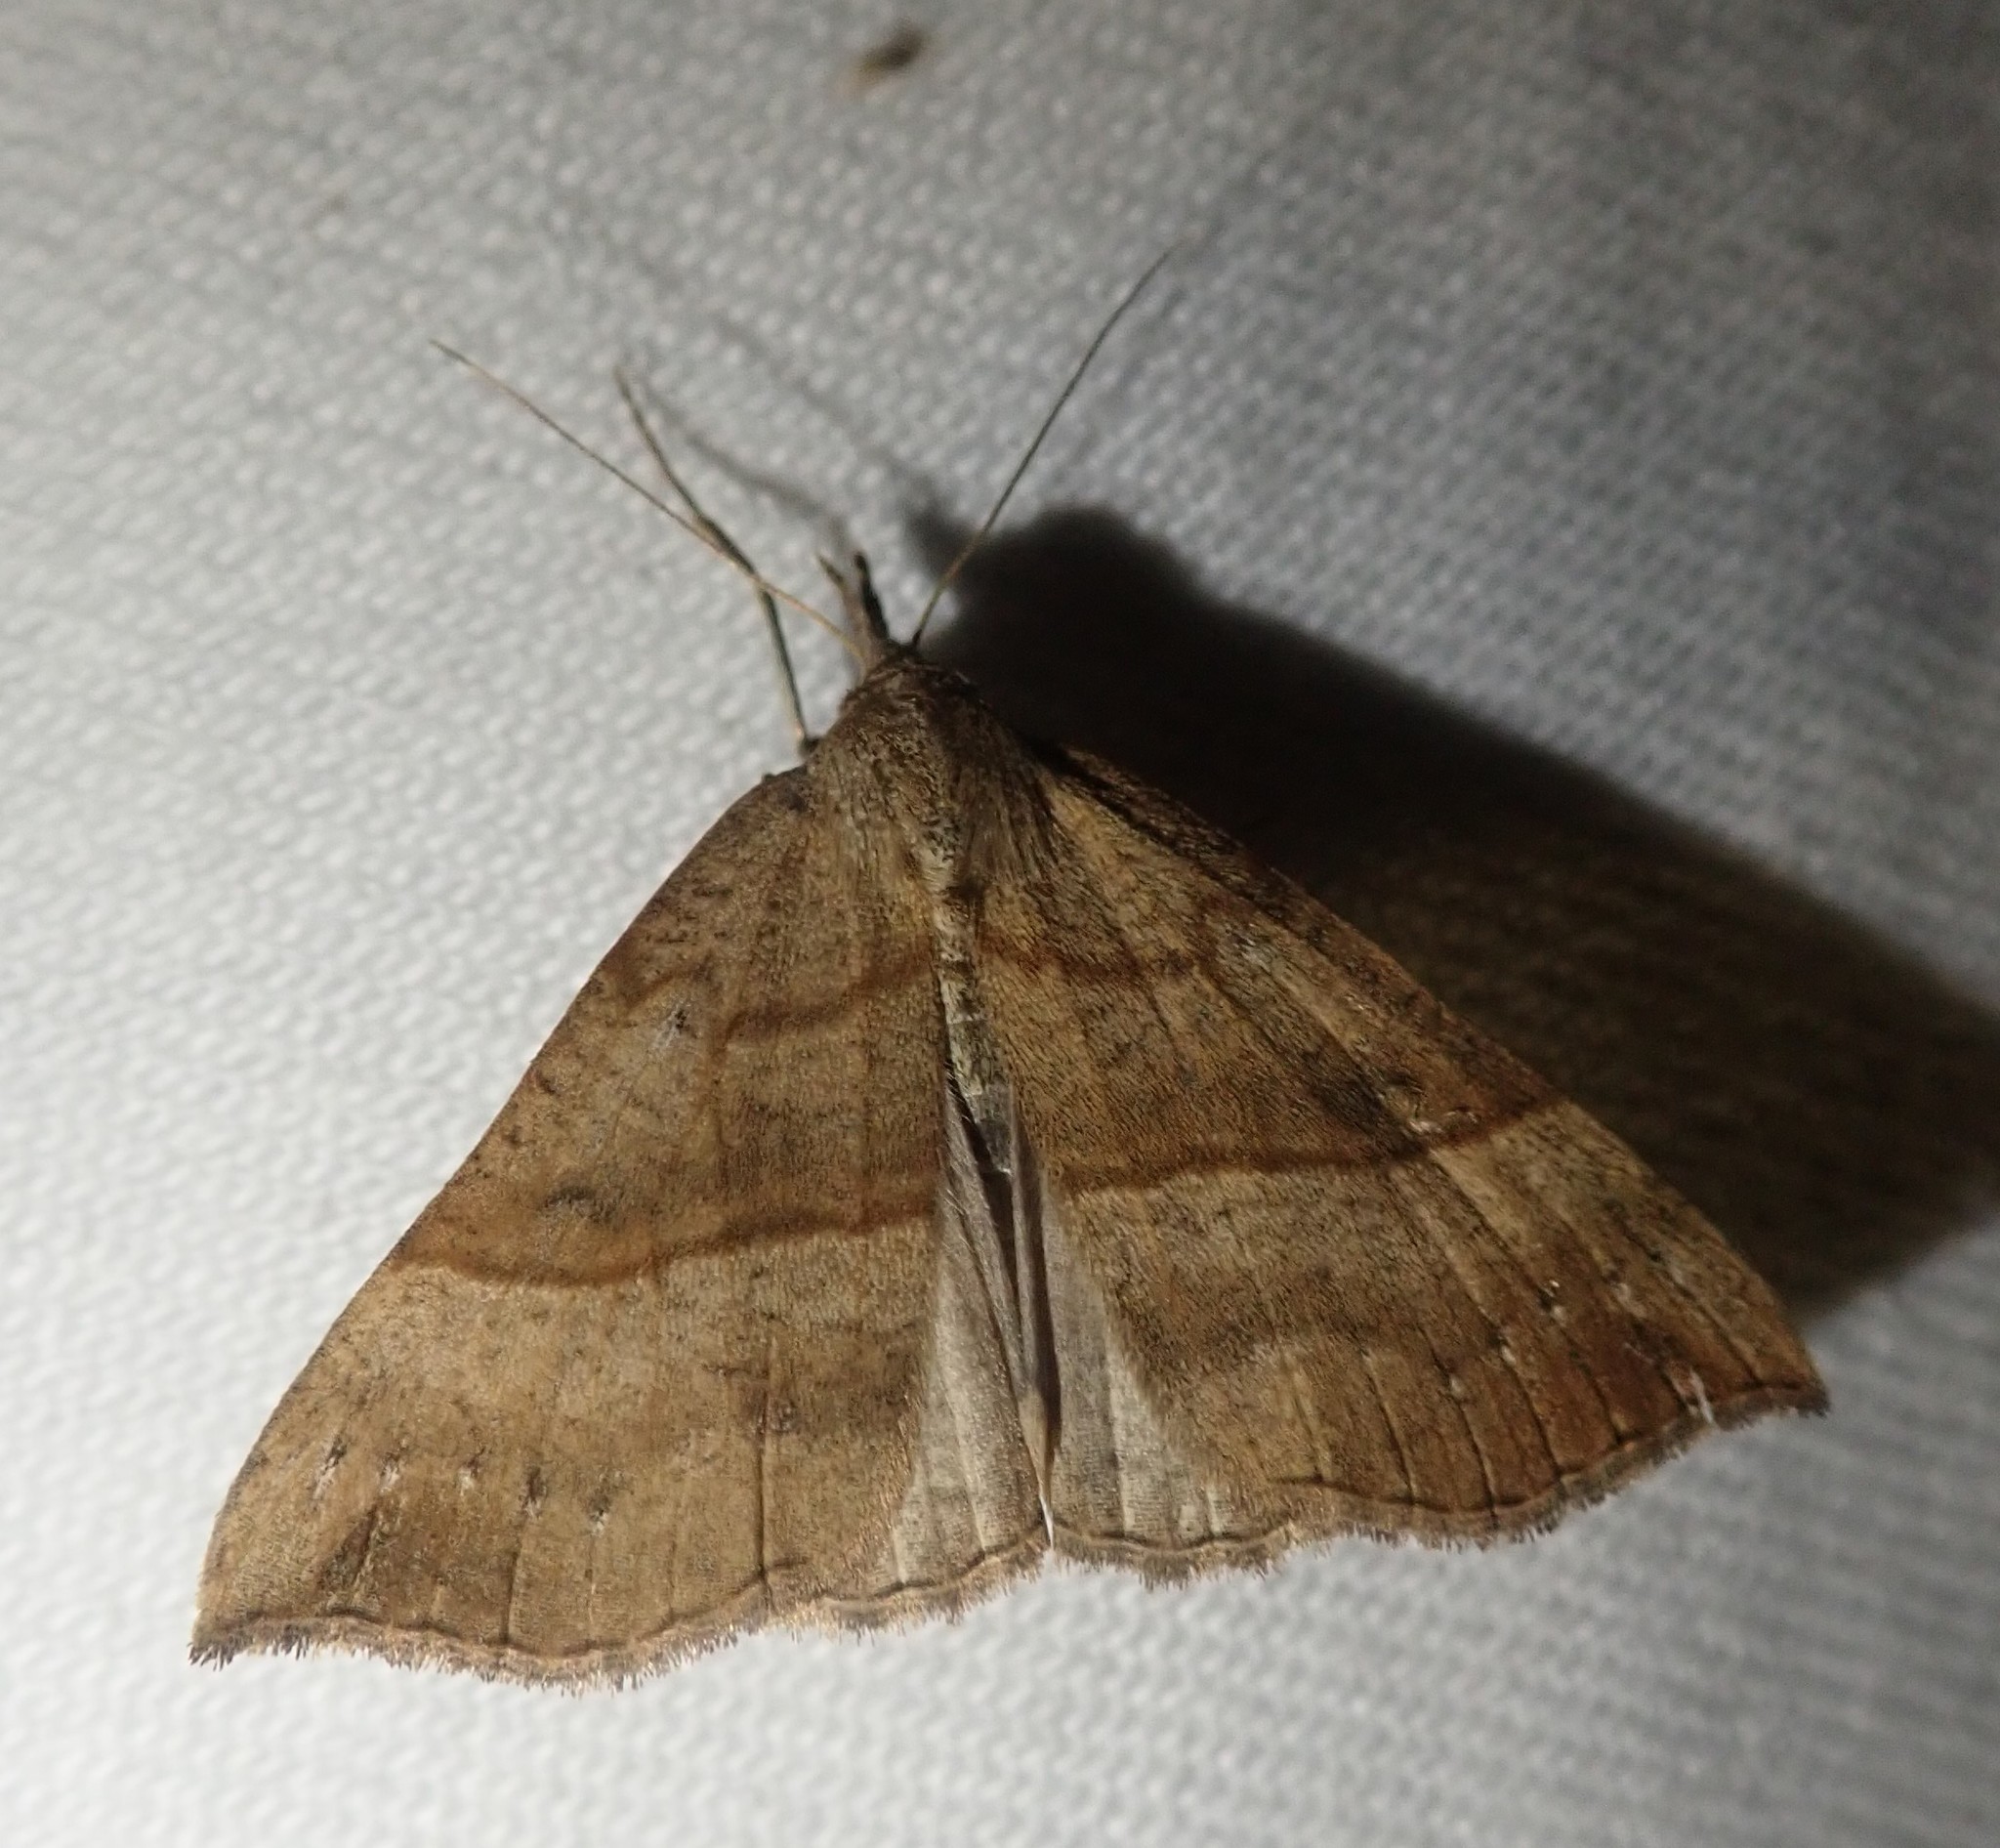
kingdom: Animalia
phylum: Arthropoda
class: Insecta
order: Lepidoptera
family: Erebidae
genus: Hypena
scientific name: Hypena proboscidalis
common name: Snout
